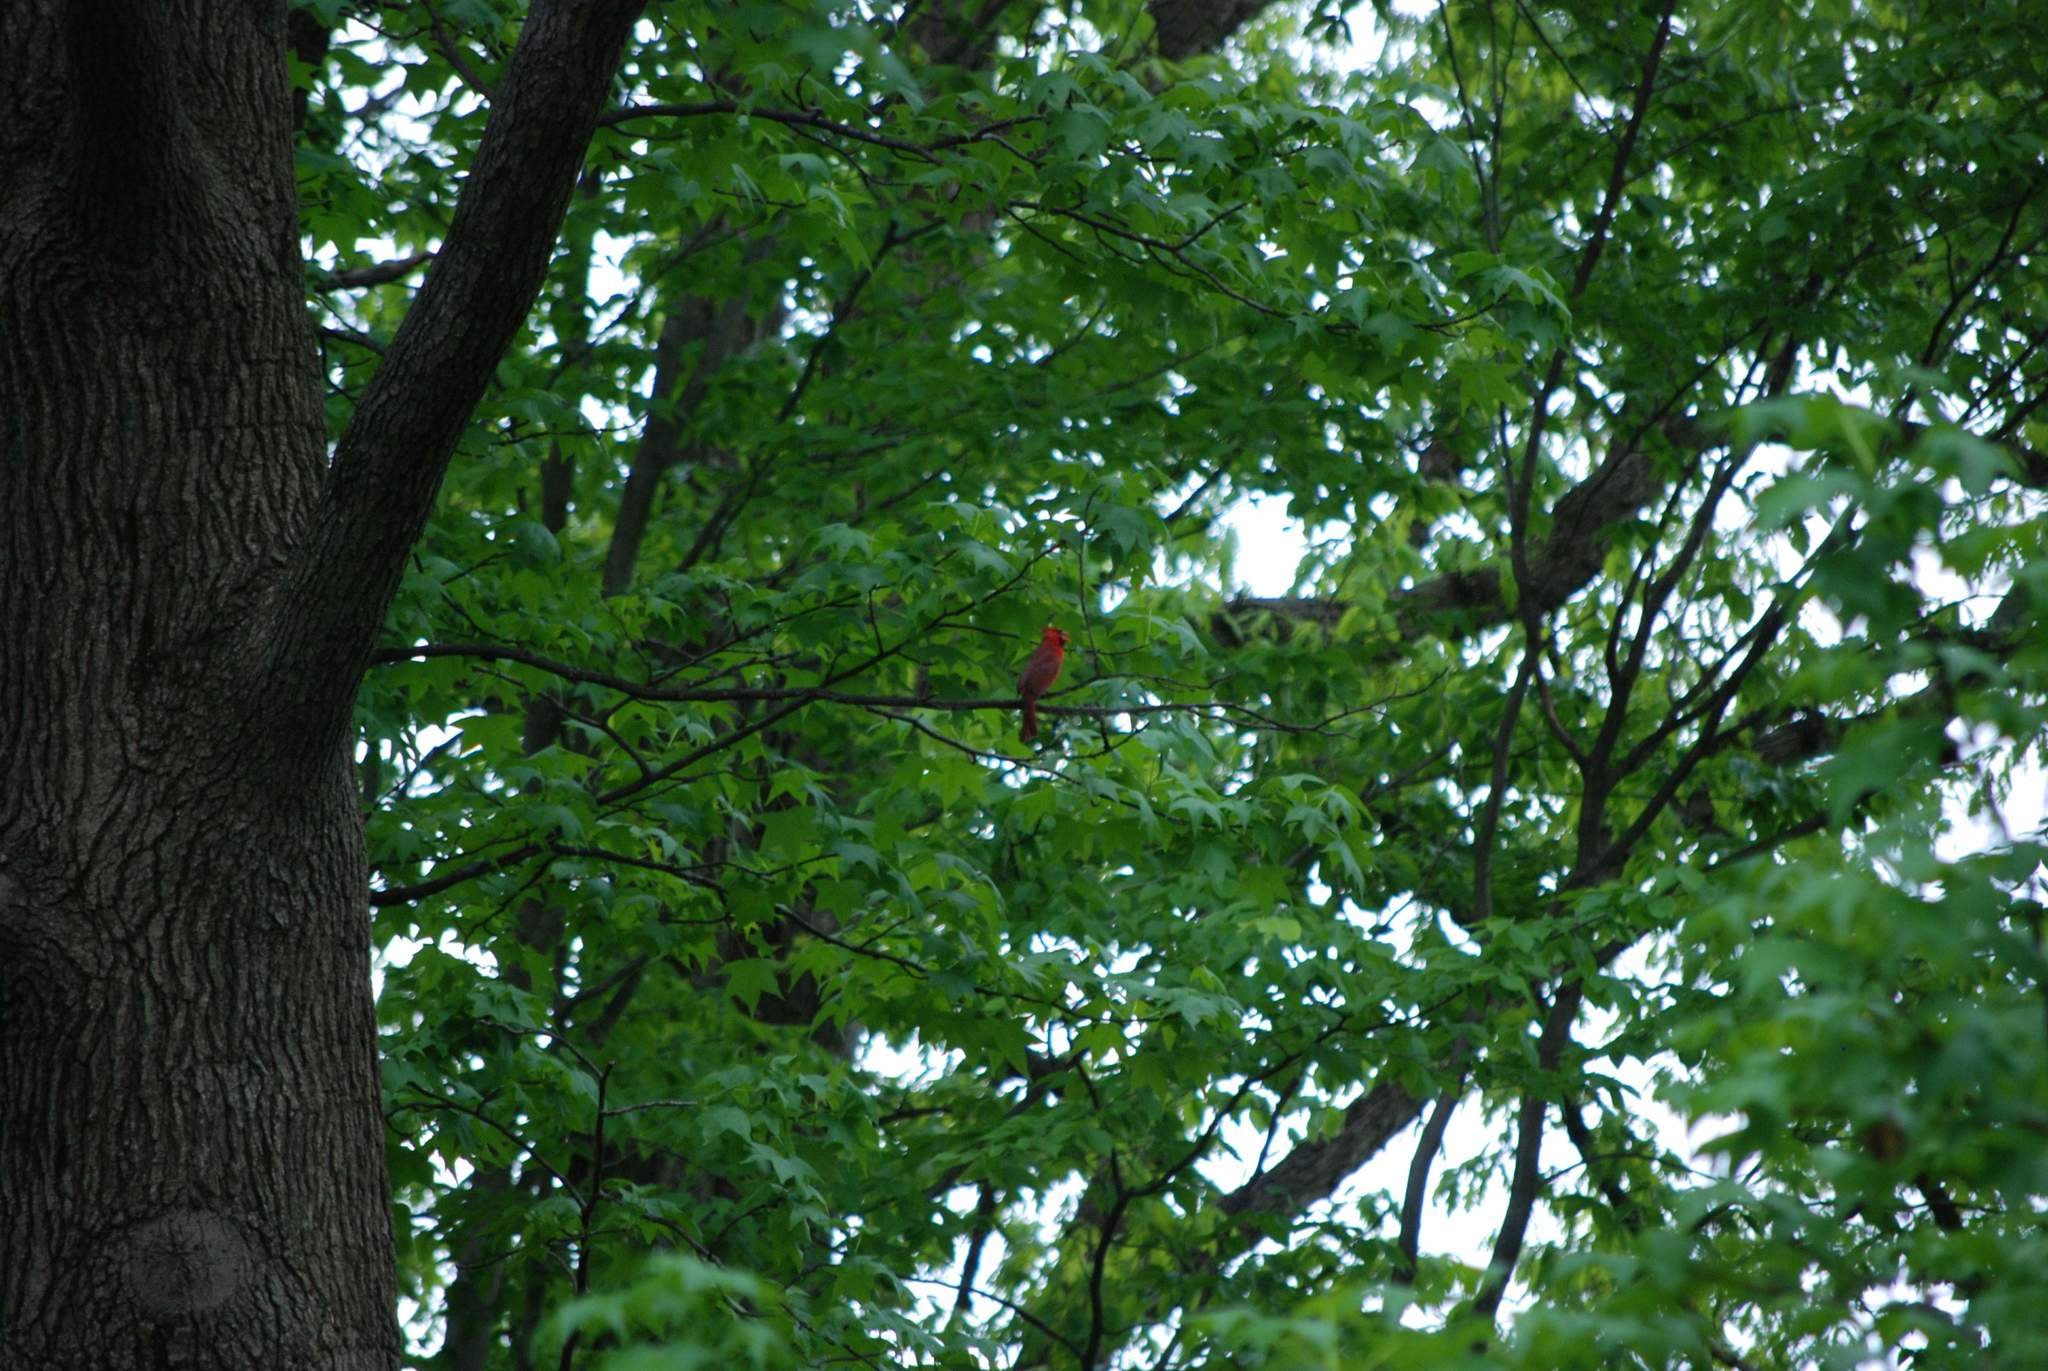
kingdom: Animalia
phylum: Chordata
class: Aves
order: Passeriformes
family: Cardinalidae
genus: Cardinalis
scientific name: Cardinalis cardinalis
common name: Northern cardinal
